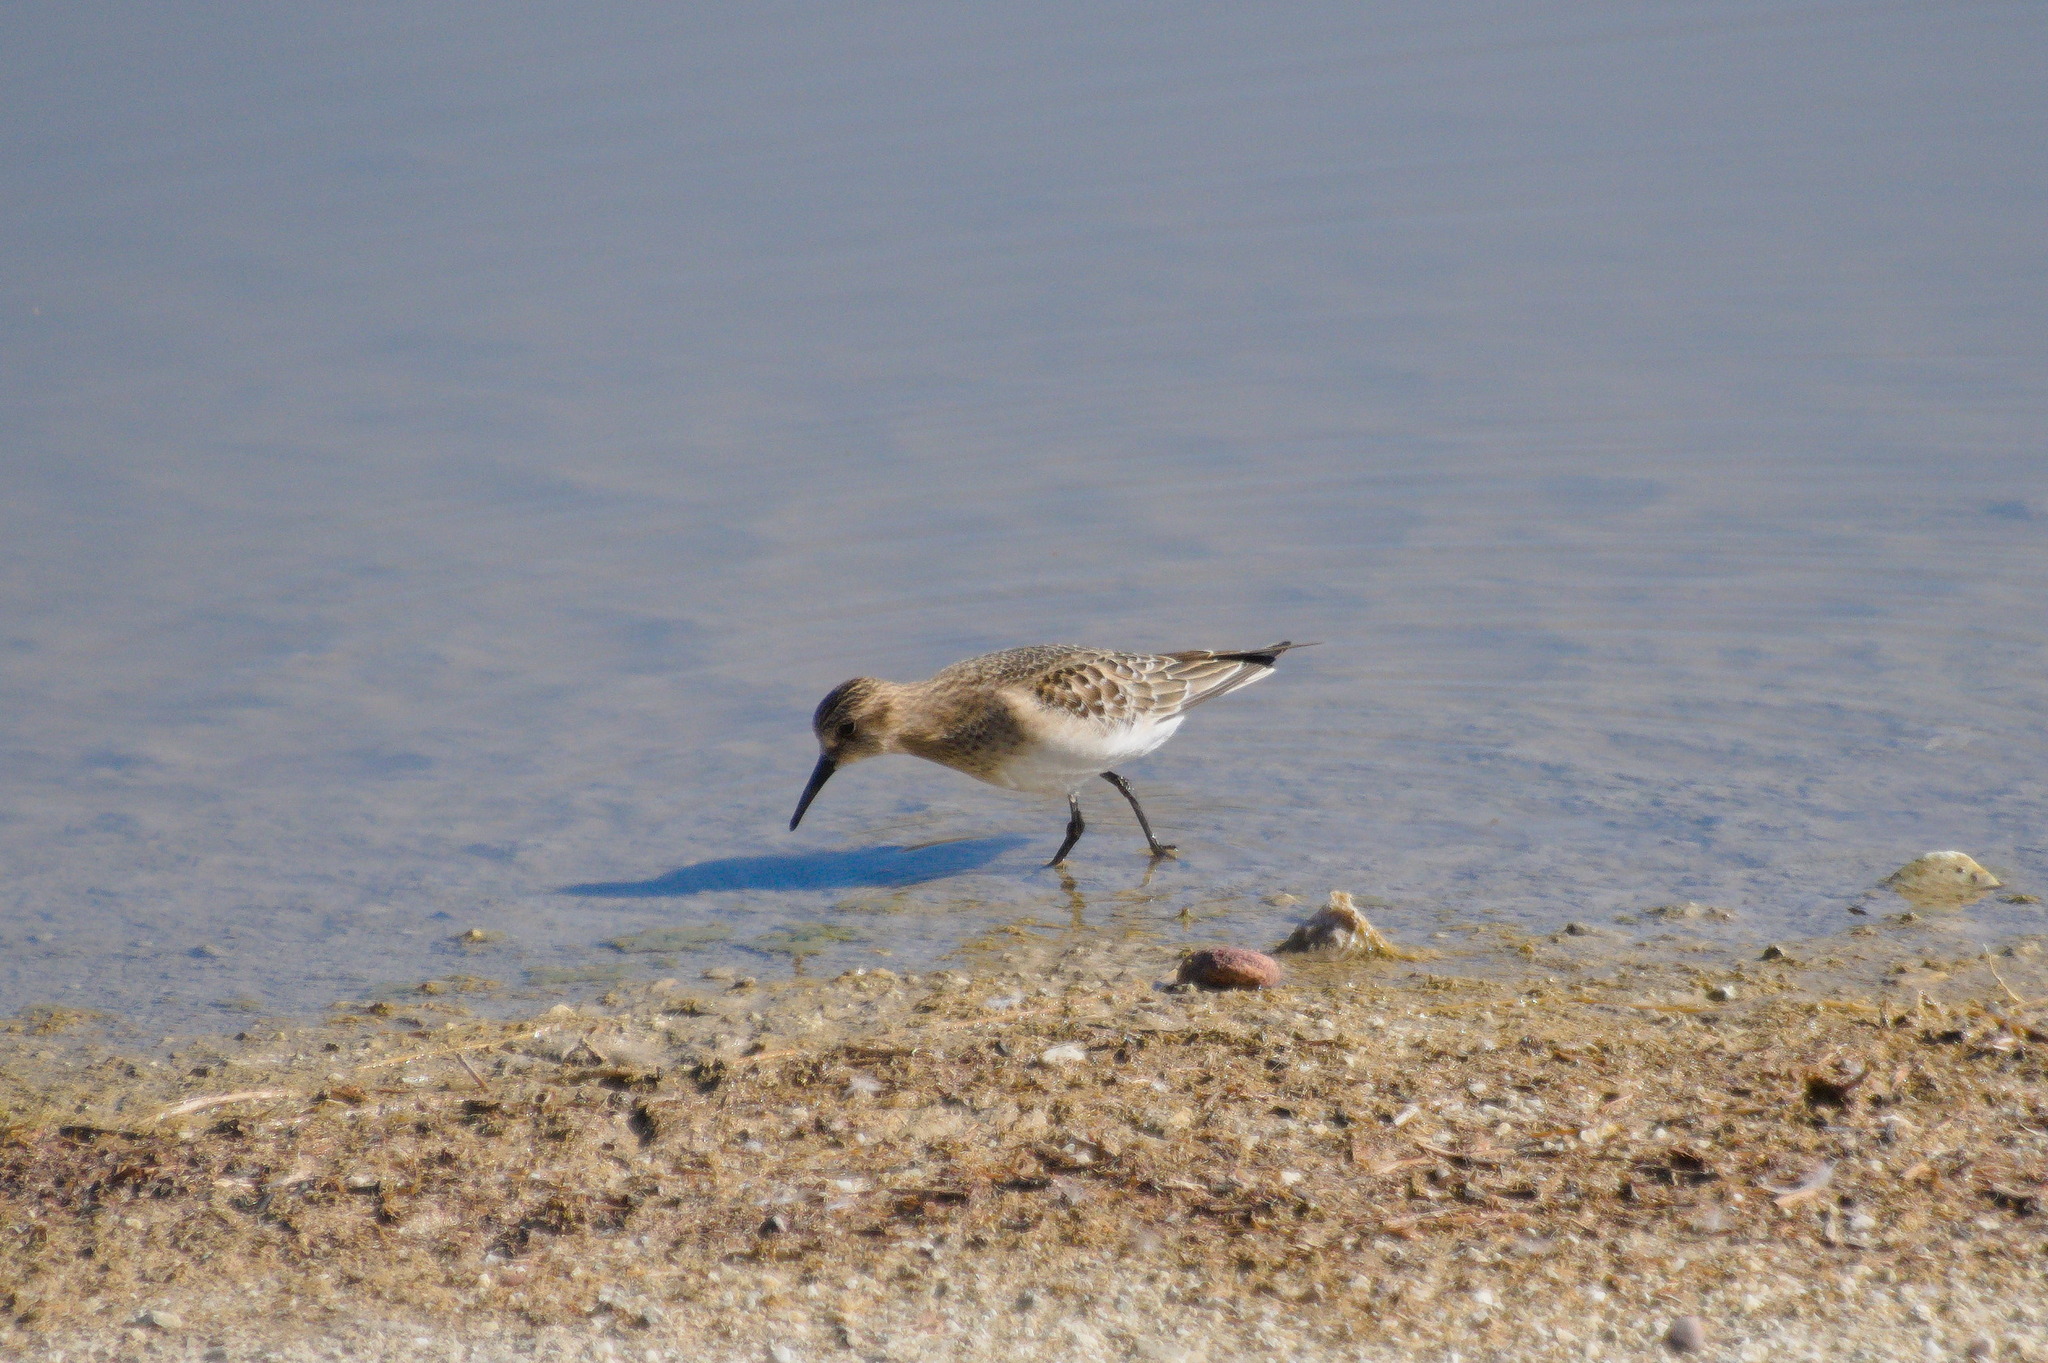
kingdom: Animalia
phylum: Chordata
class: Aves
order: Charadriiformes
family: Scolopacidae
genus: Calidris
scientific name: Calidris bairdii
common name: Baird's sandpiper
